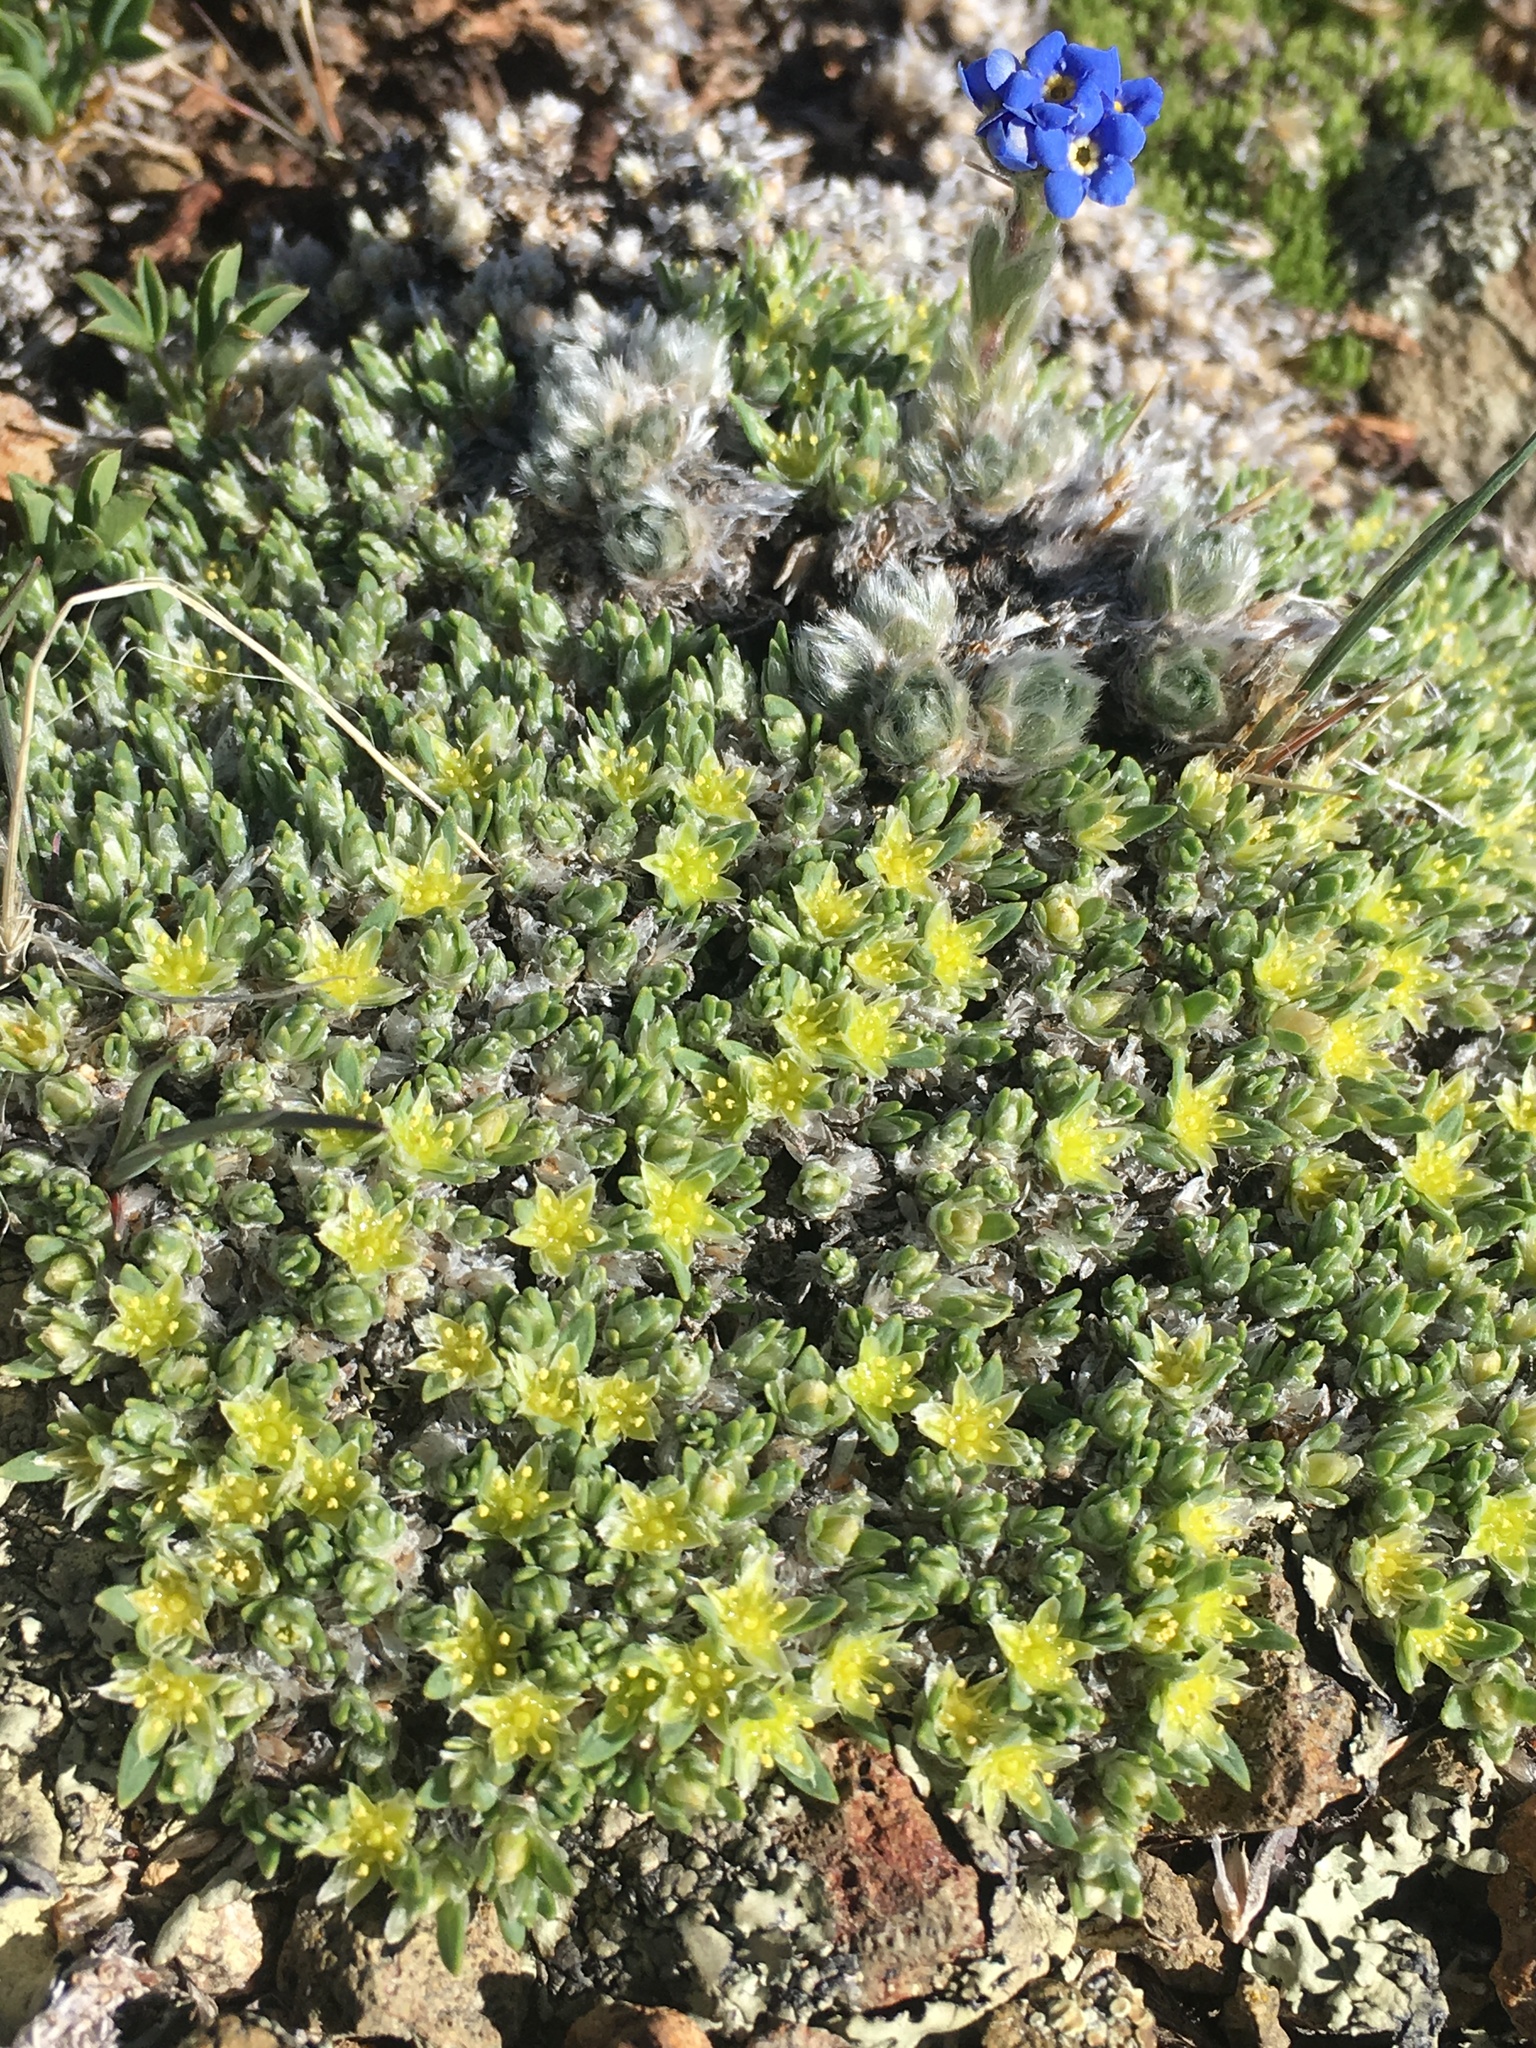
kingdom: Plantae
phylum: Tracheophyta
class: Magnoliopsida
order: Caryophyllales
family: Caryophyllaceae
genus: Paronychia
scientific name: Paronychia pulvinata
